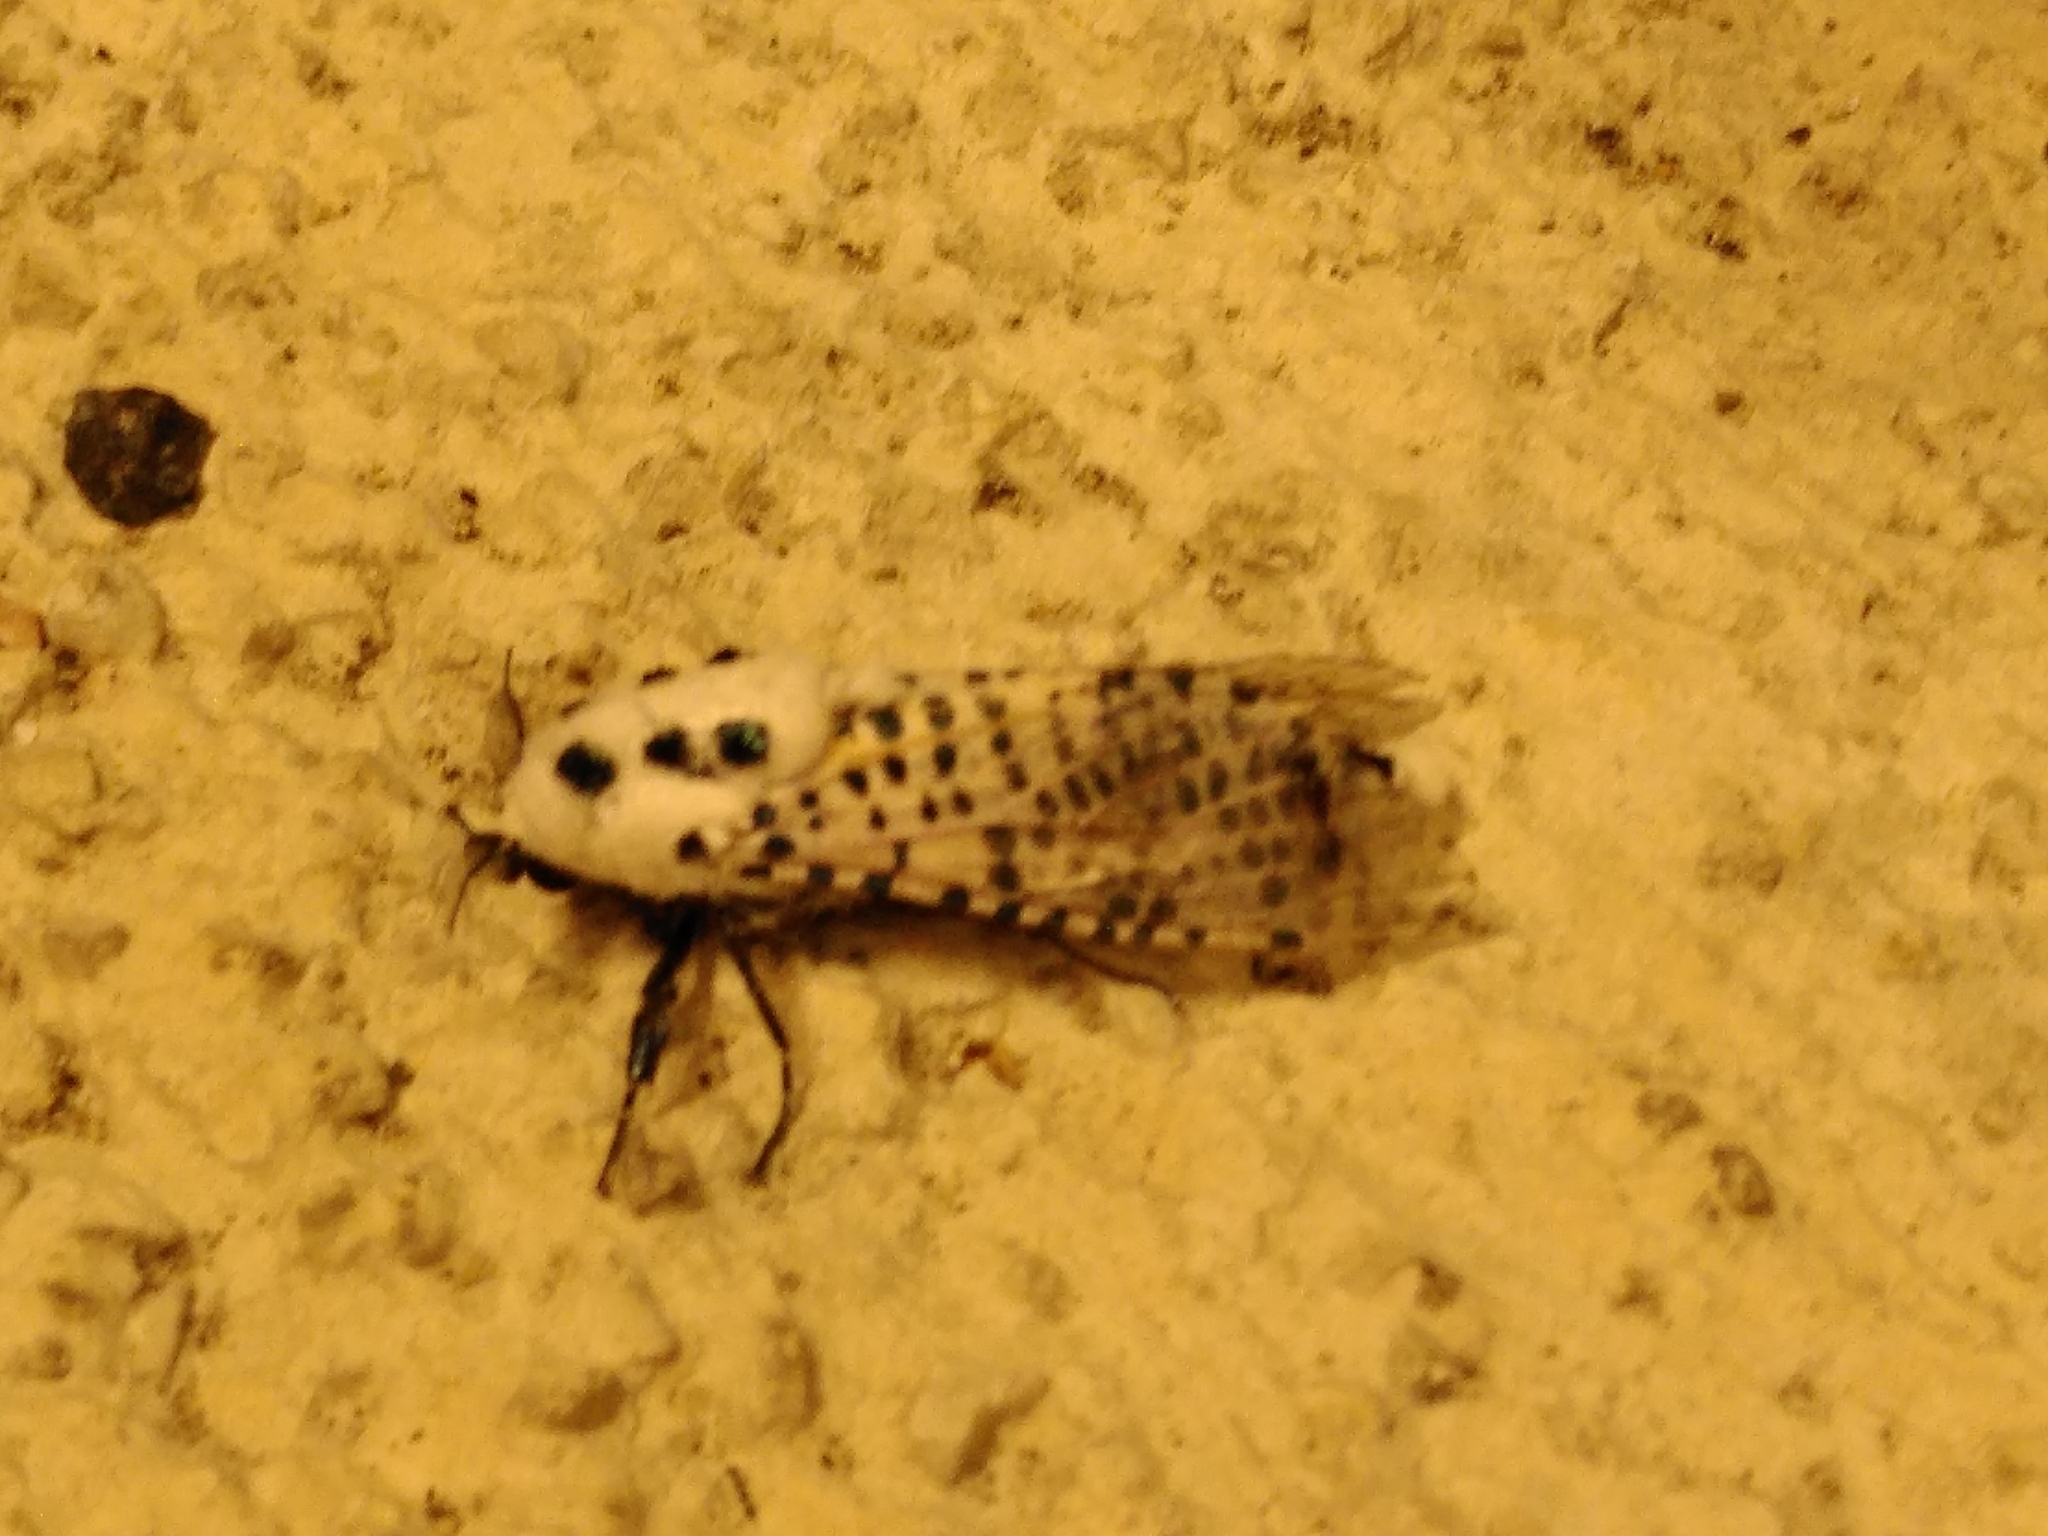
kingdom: Animalia
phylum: Arthropoda
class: Insecta
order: Lepidoptera
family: Cossidae
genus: Zeuzera
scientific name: Zeuzera pyrina
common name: Leopard moth
